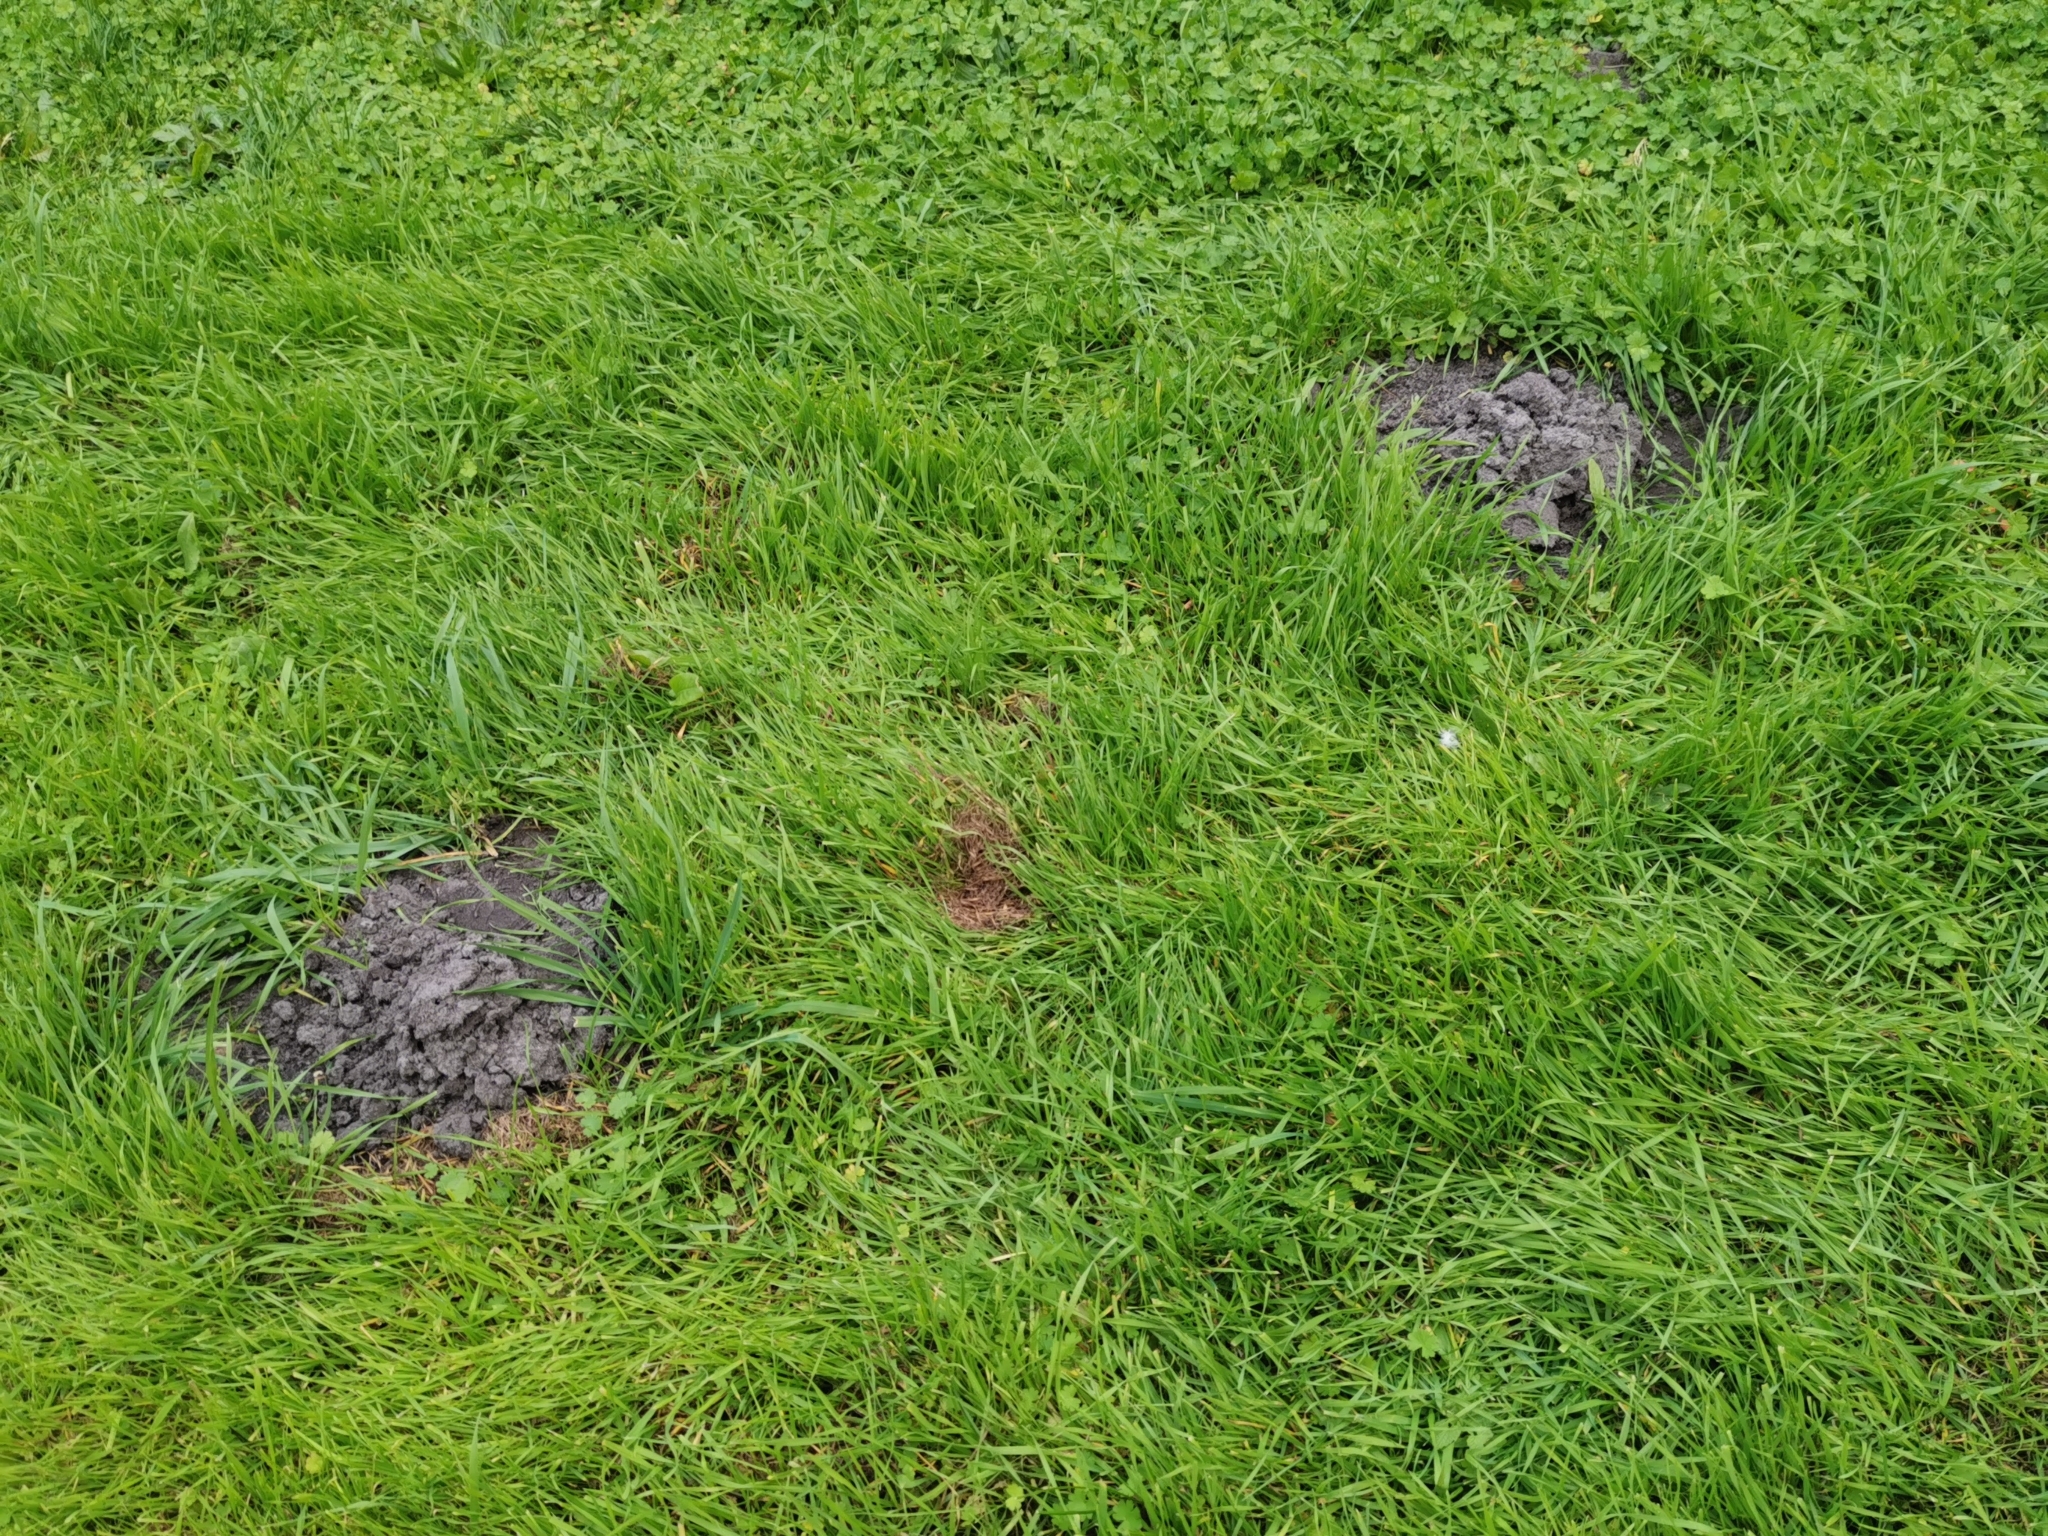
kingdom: Animalia
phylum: Chordata
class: Mammalia
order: Soricomorpha
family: Talpidae
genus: Talpa
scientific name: Talpa europaea
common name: European mole
